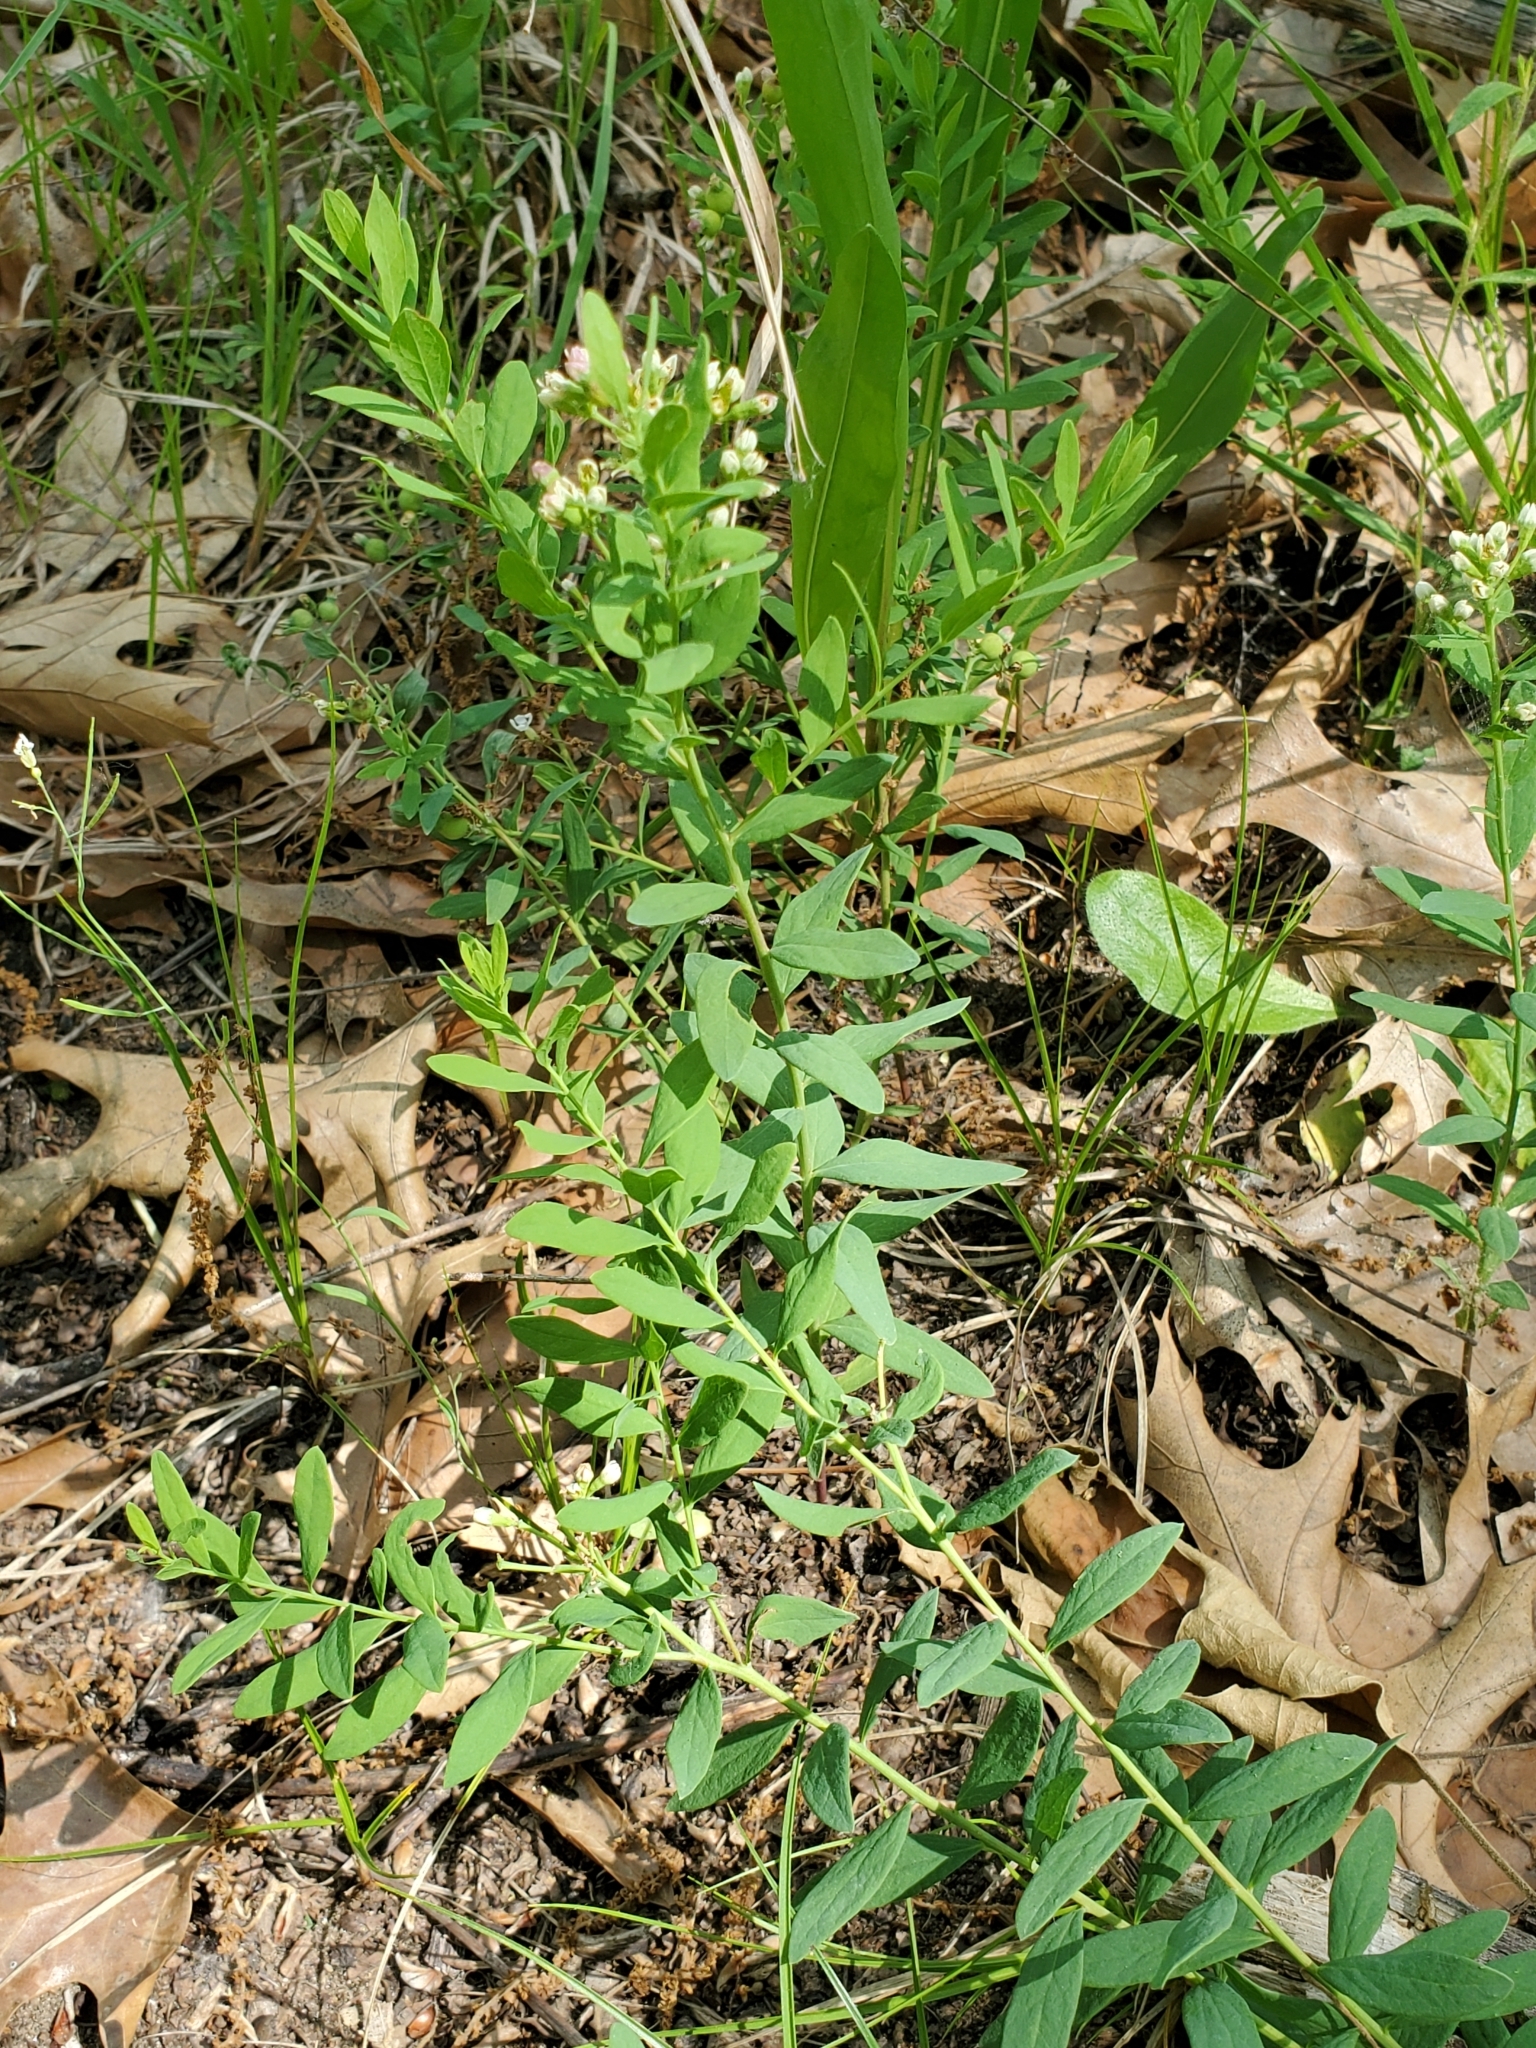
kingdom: Plantae
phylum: Tracheophyta
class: Magnoliopsida
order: Santalales
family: Comandraceae
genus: Comandra
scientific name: Comandra umbellata
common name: Bastard toadflax
